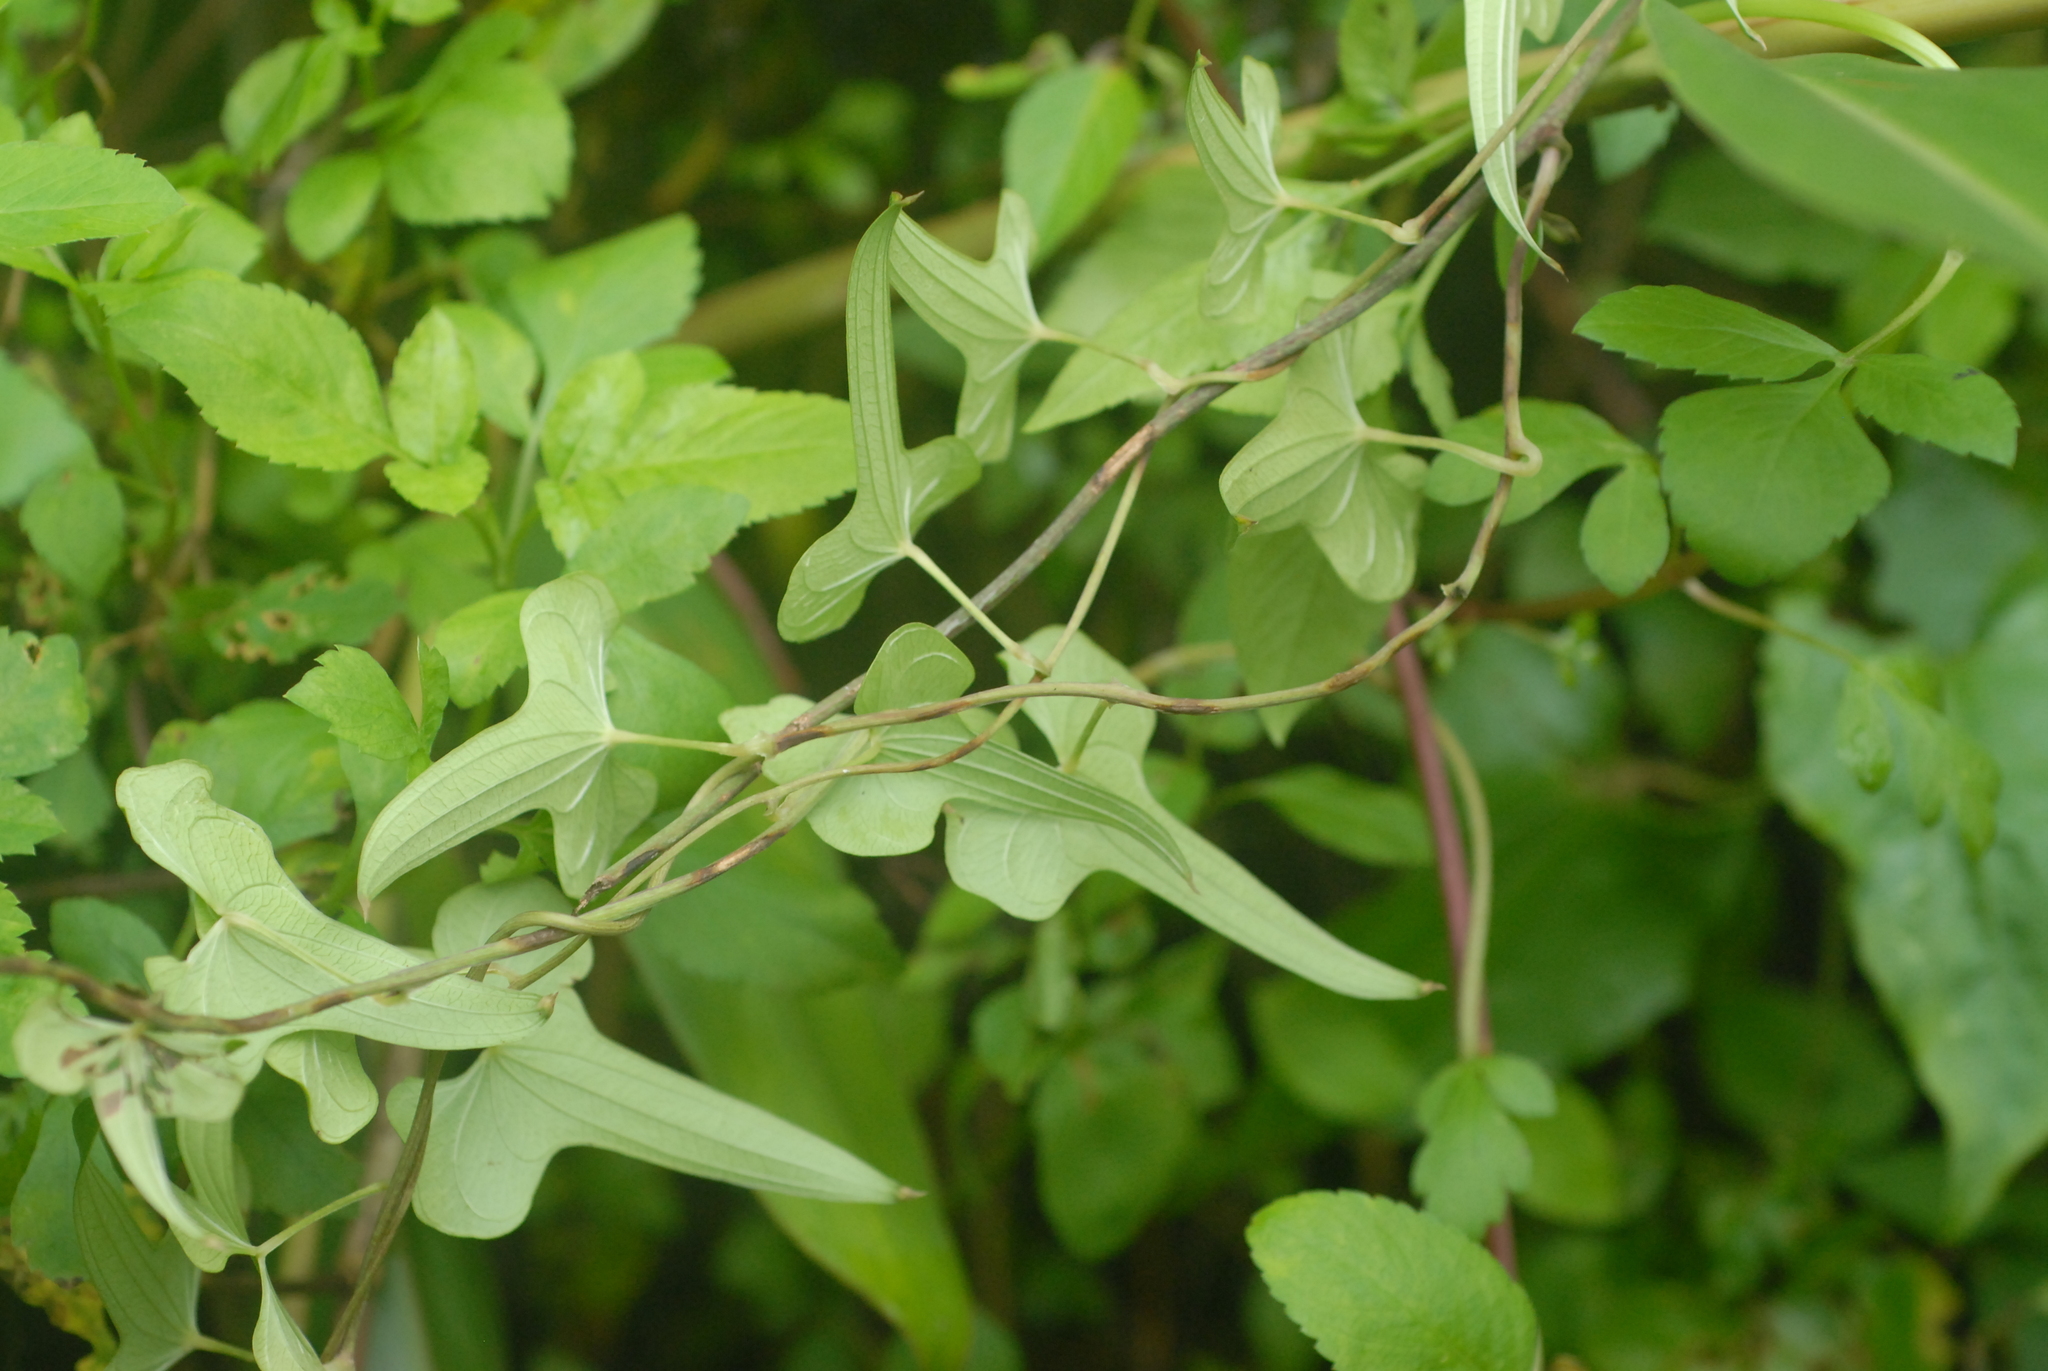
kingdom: Plantae
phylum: Tracheophyta
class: Liliopsida
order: Dioscoreales
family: Dioscoreaceae
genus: Dioscorea
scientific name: Dioscorea polystachya
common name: Chinese yam
